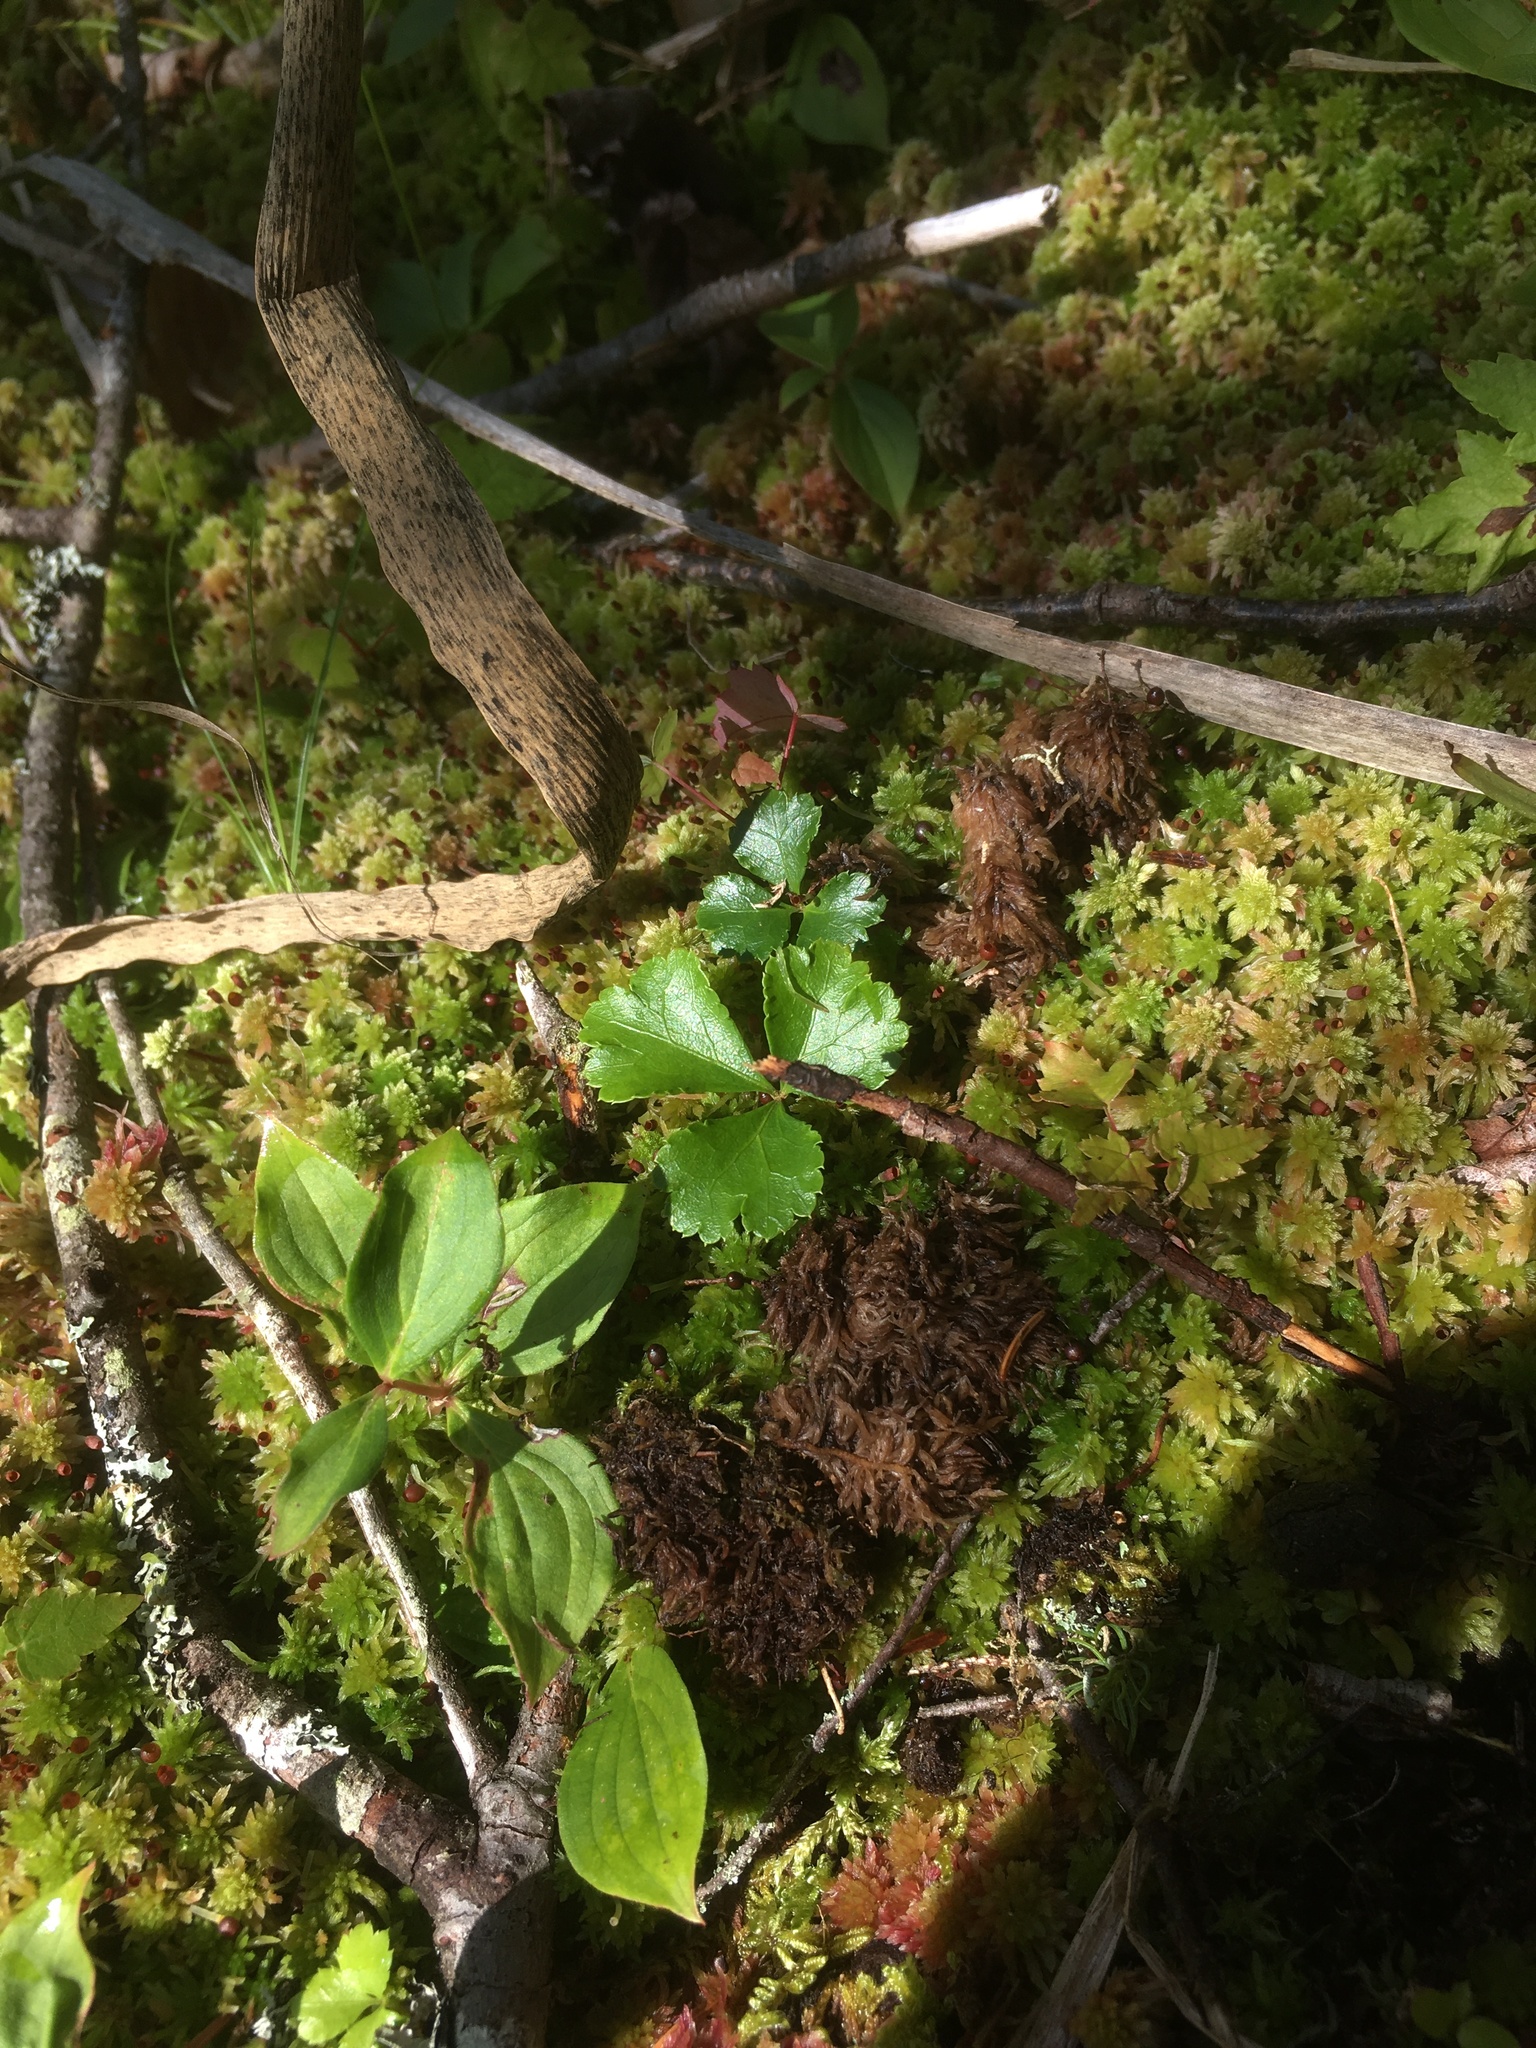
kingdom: Plantae
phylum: Tracheophyta
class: Magnoliopsida
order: Ranunculales
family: Ranunculaceae
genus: Coptis
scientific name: Coptis trifolia
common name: Canker-root
